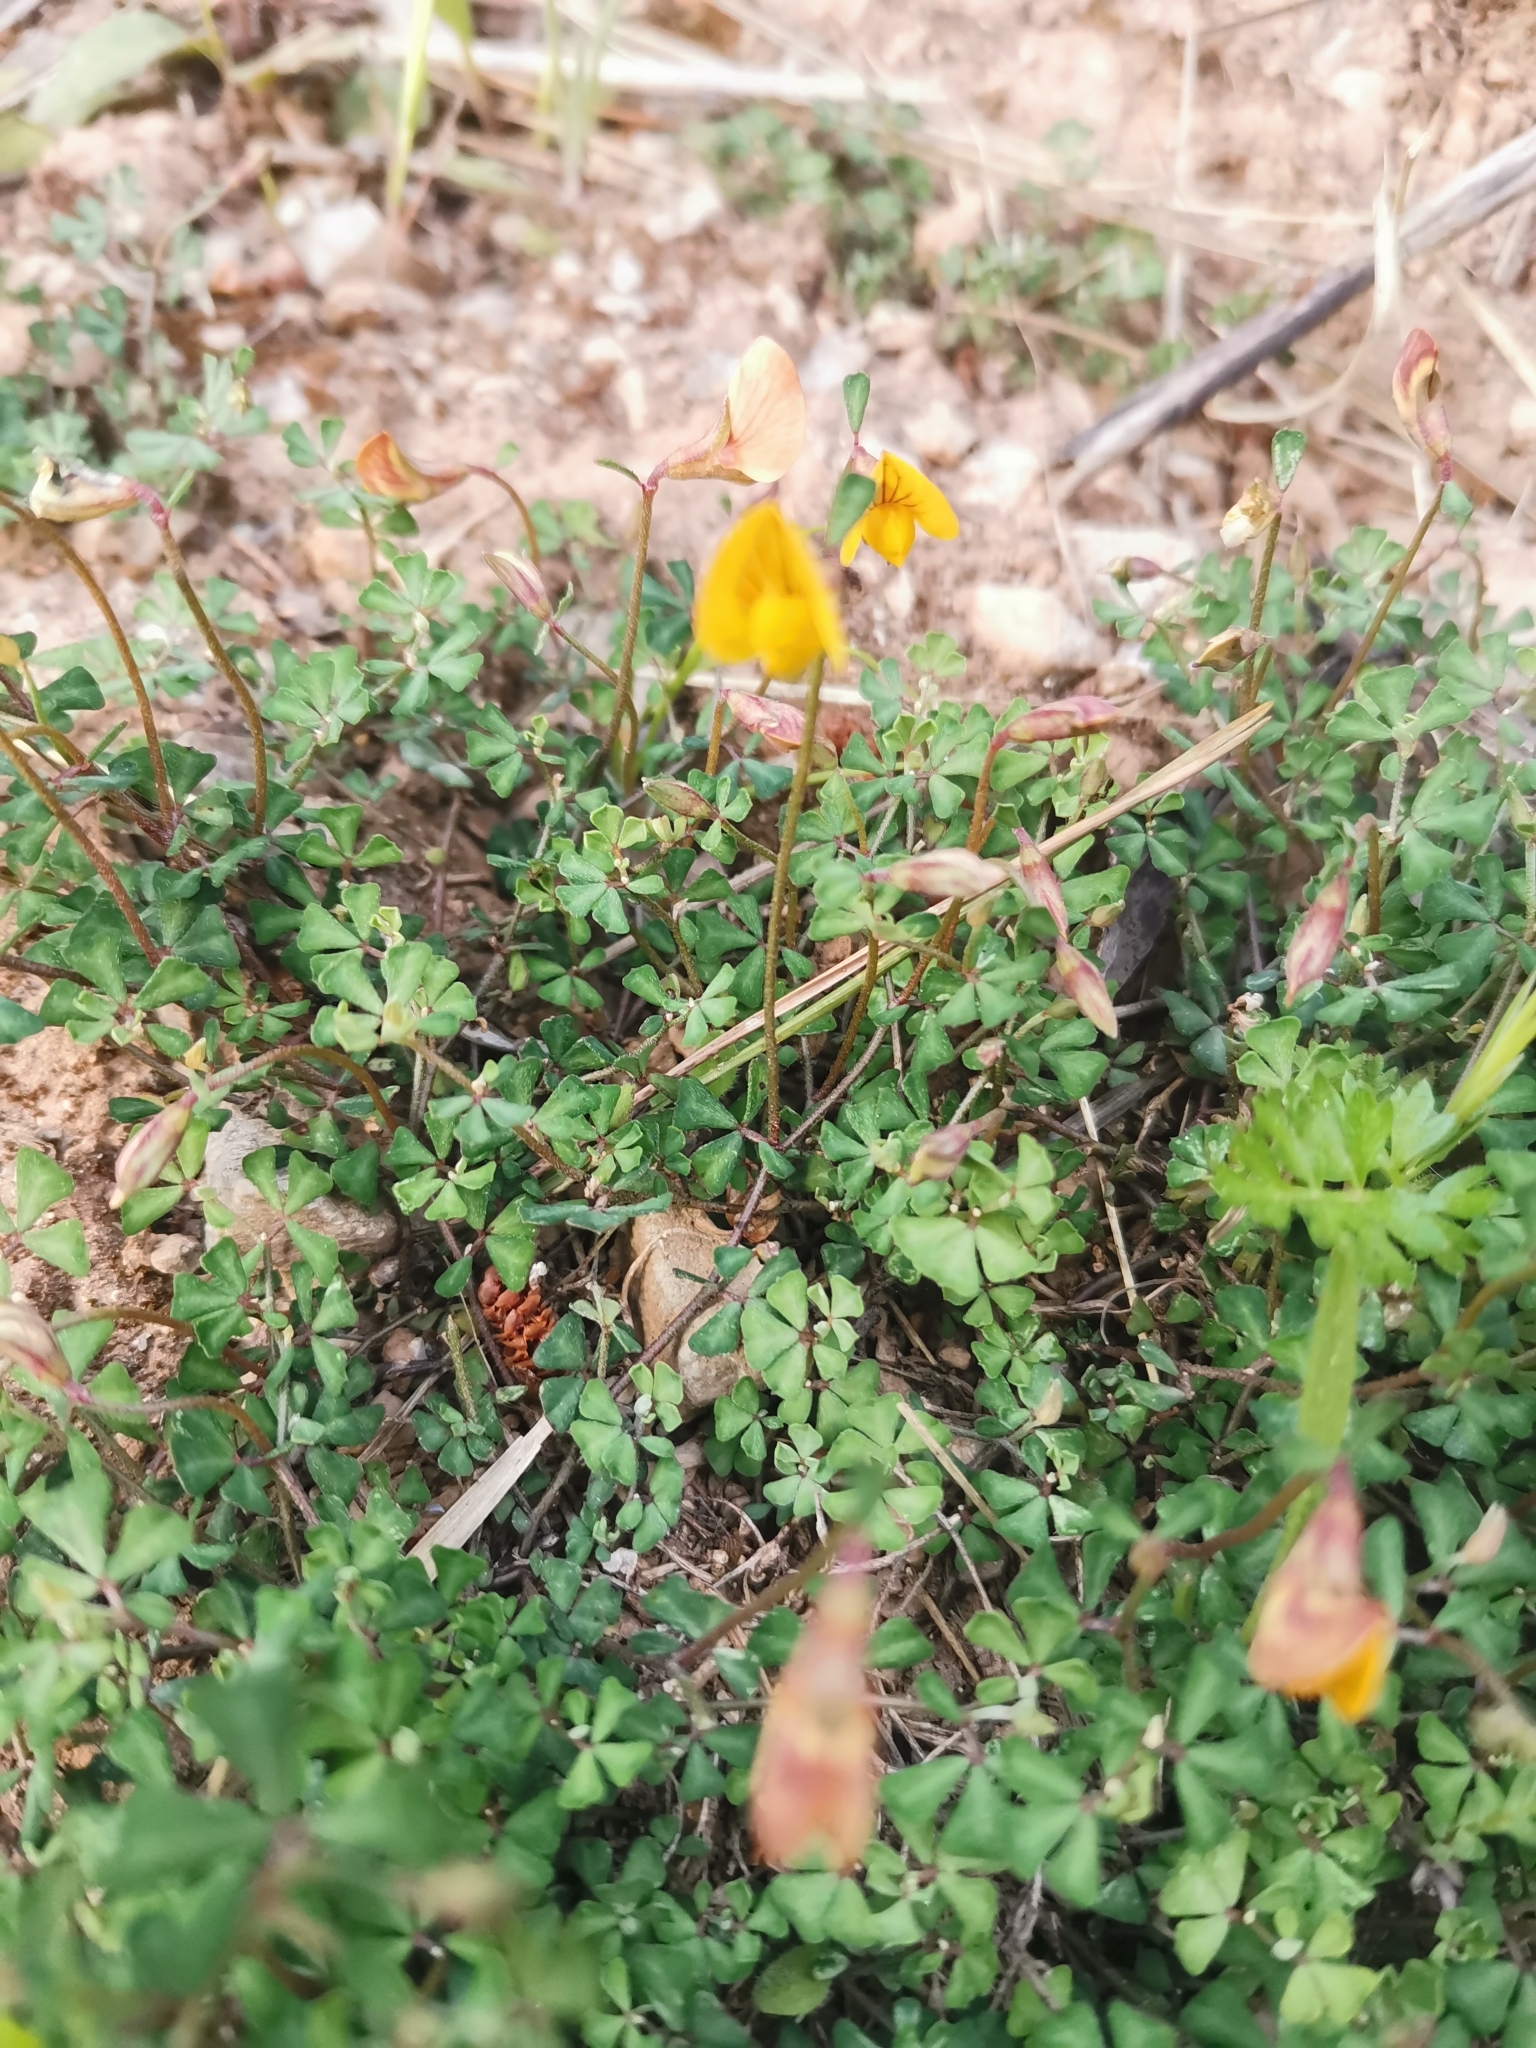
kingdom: Plantae
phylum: Tracheophyta
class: Magnoliopsida
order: Fabales
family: Fabaceae
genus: Lotus
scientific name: Lotus tetraphyllus
